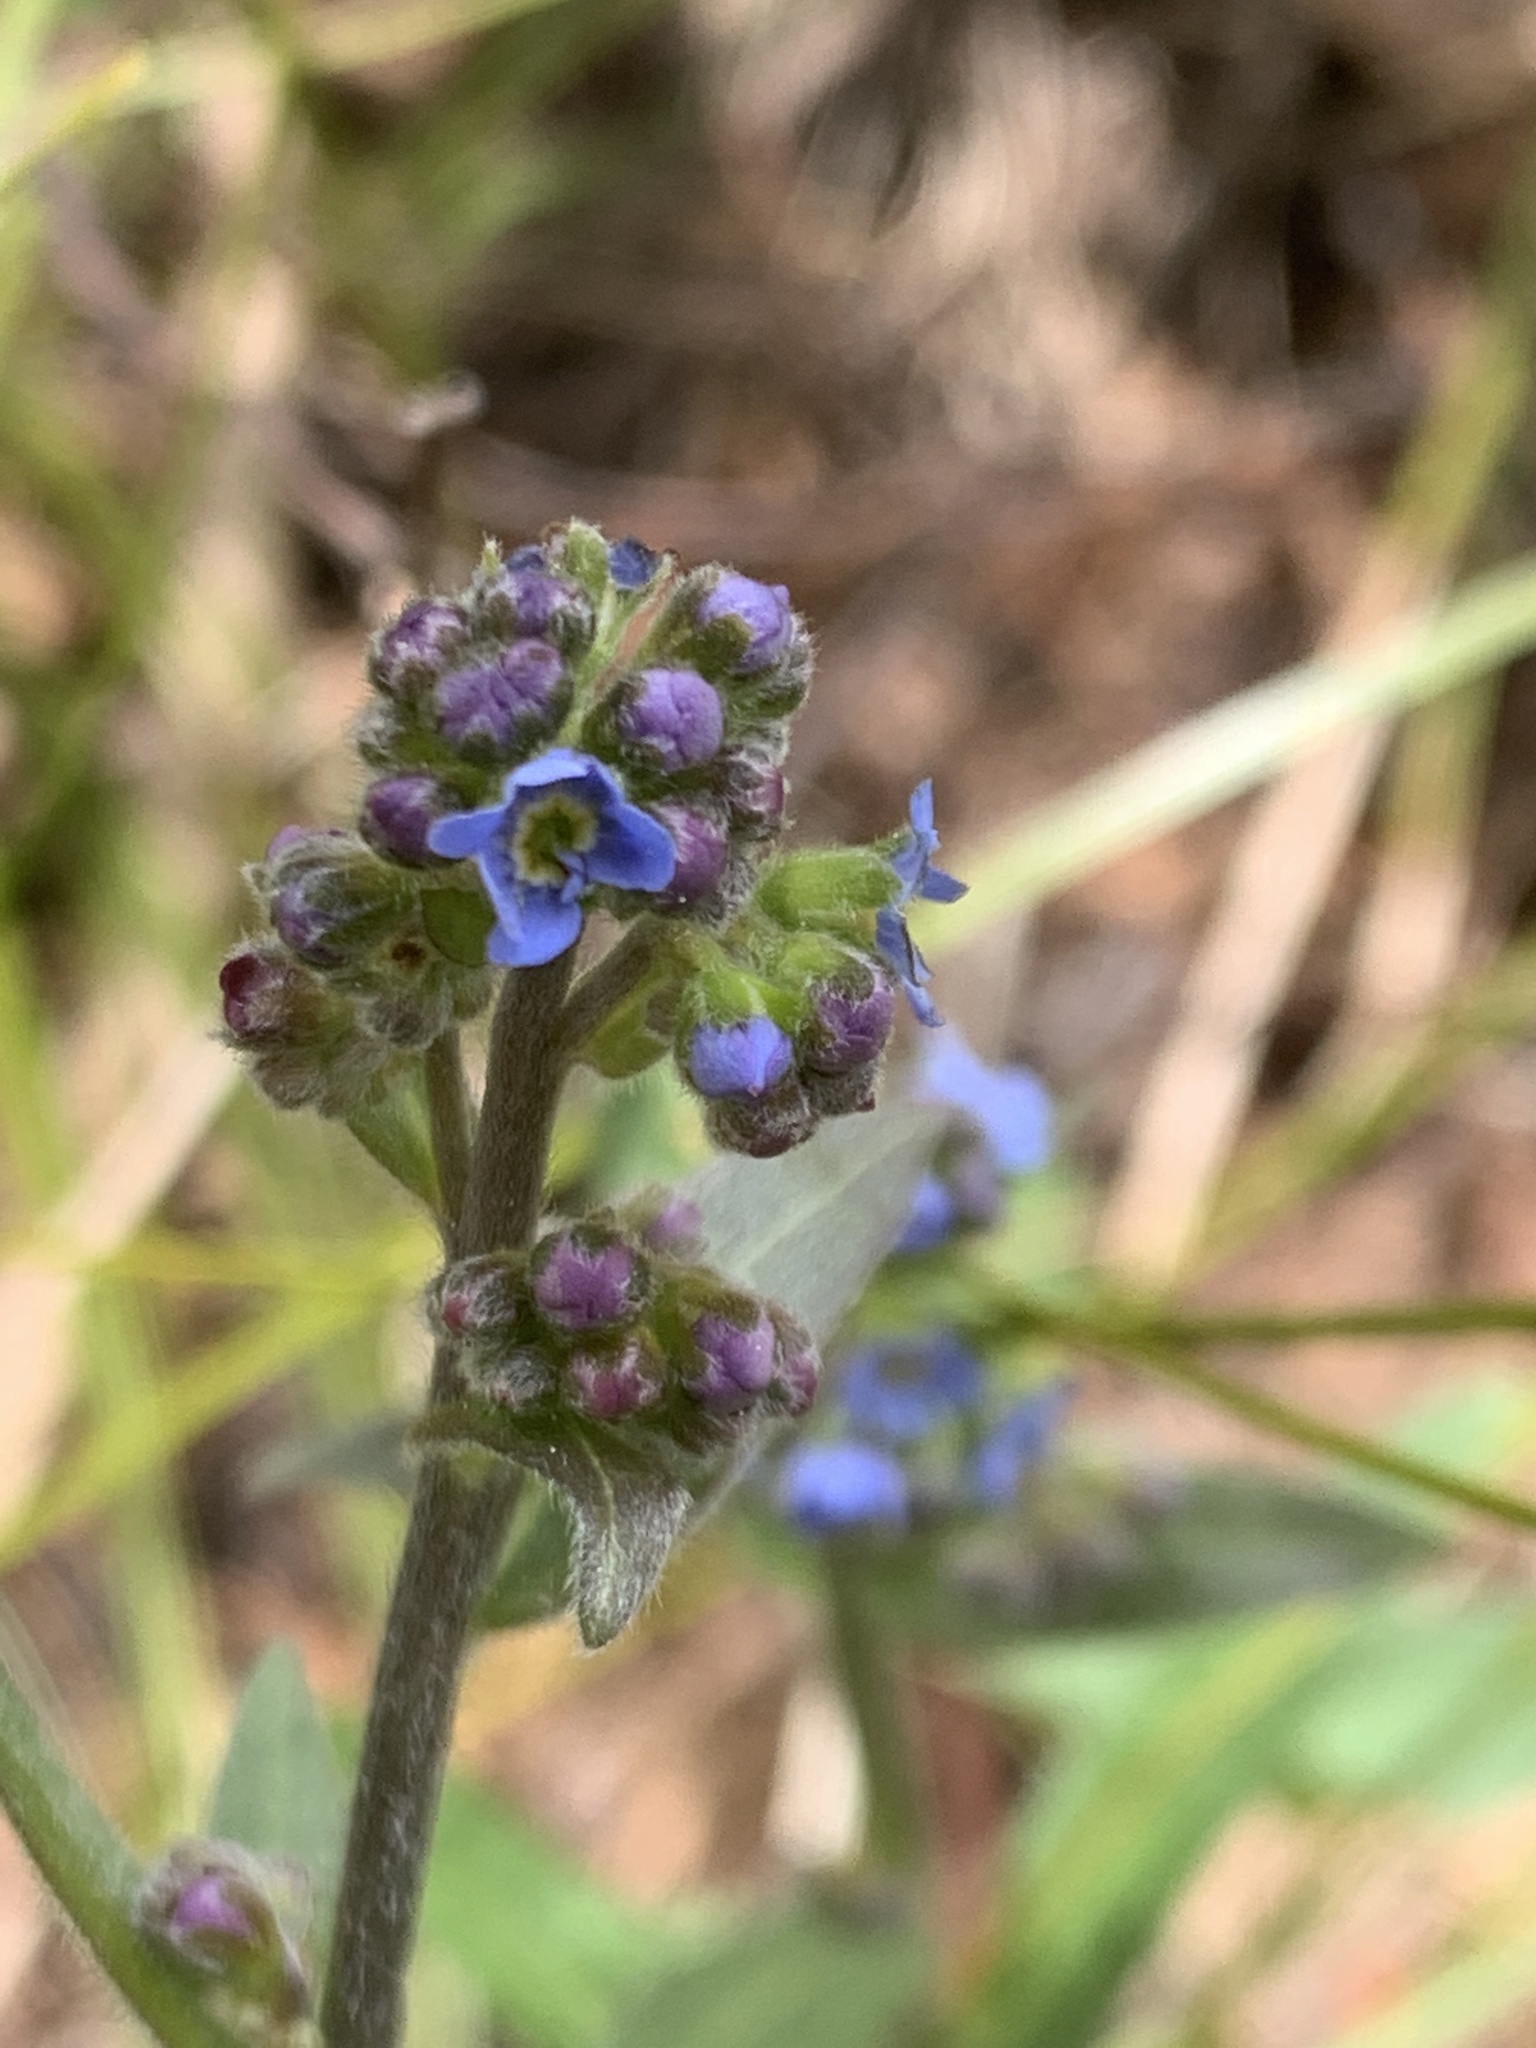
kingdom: Plantae
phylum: Tracheophyta
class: Magnoliopsida
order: Boraginales
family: Boraginaceae
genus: Hackelia
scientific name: Hackelia floribunda
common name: Large-flowered stickseed
